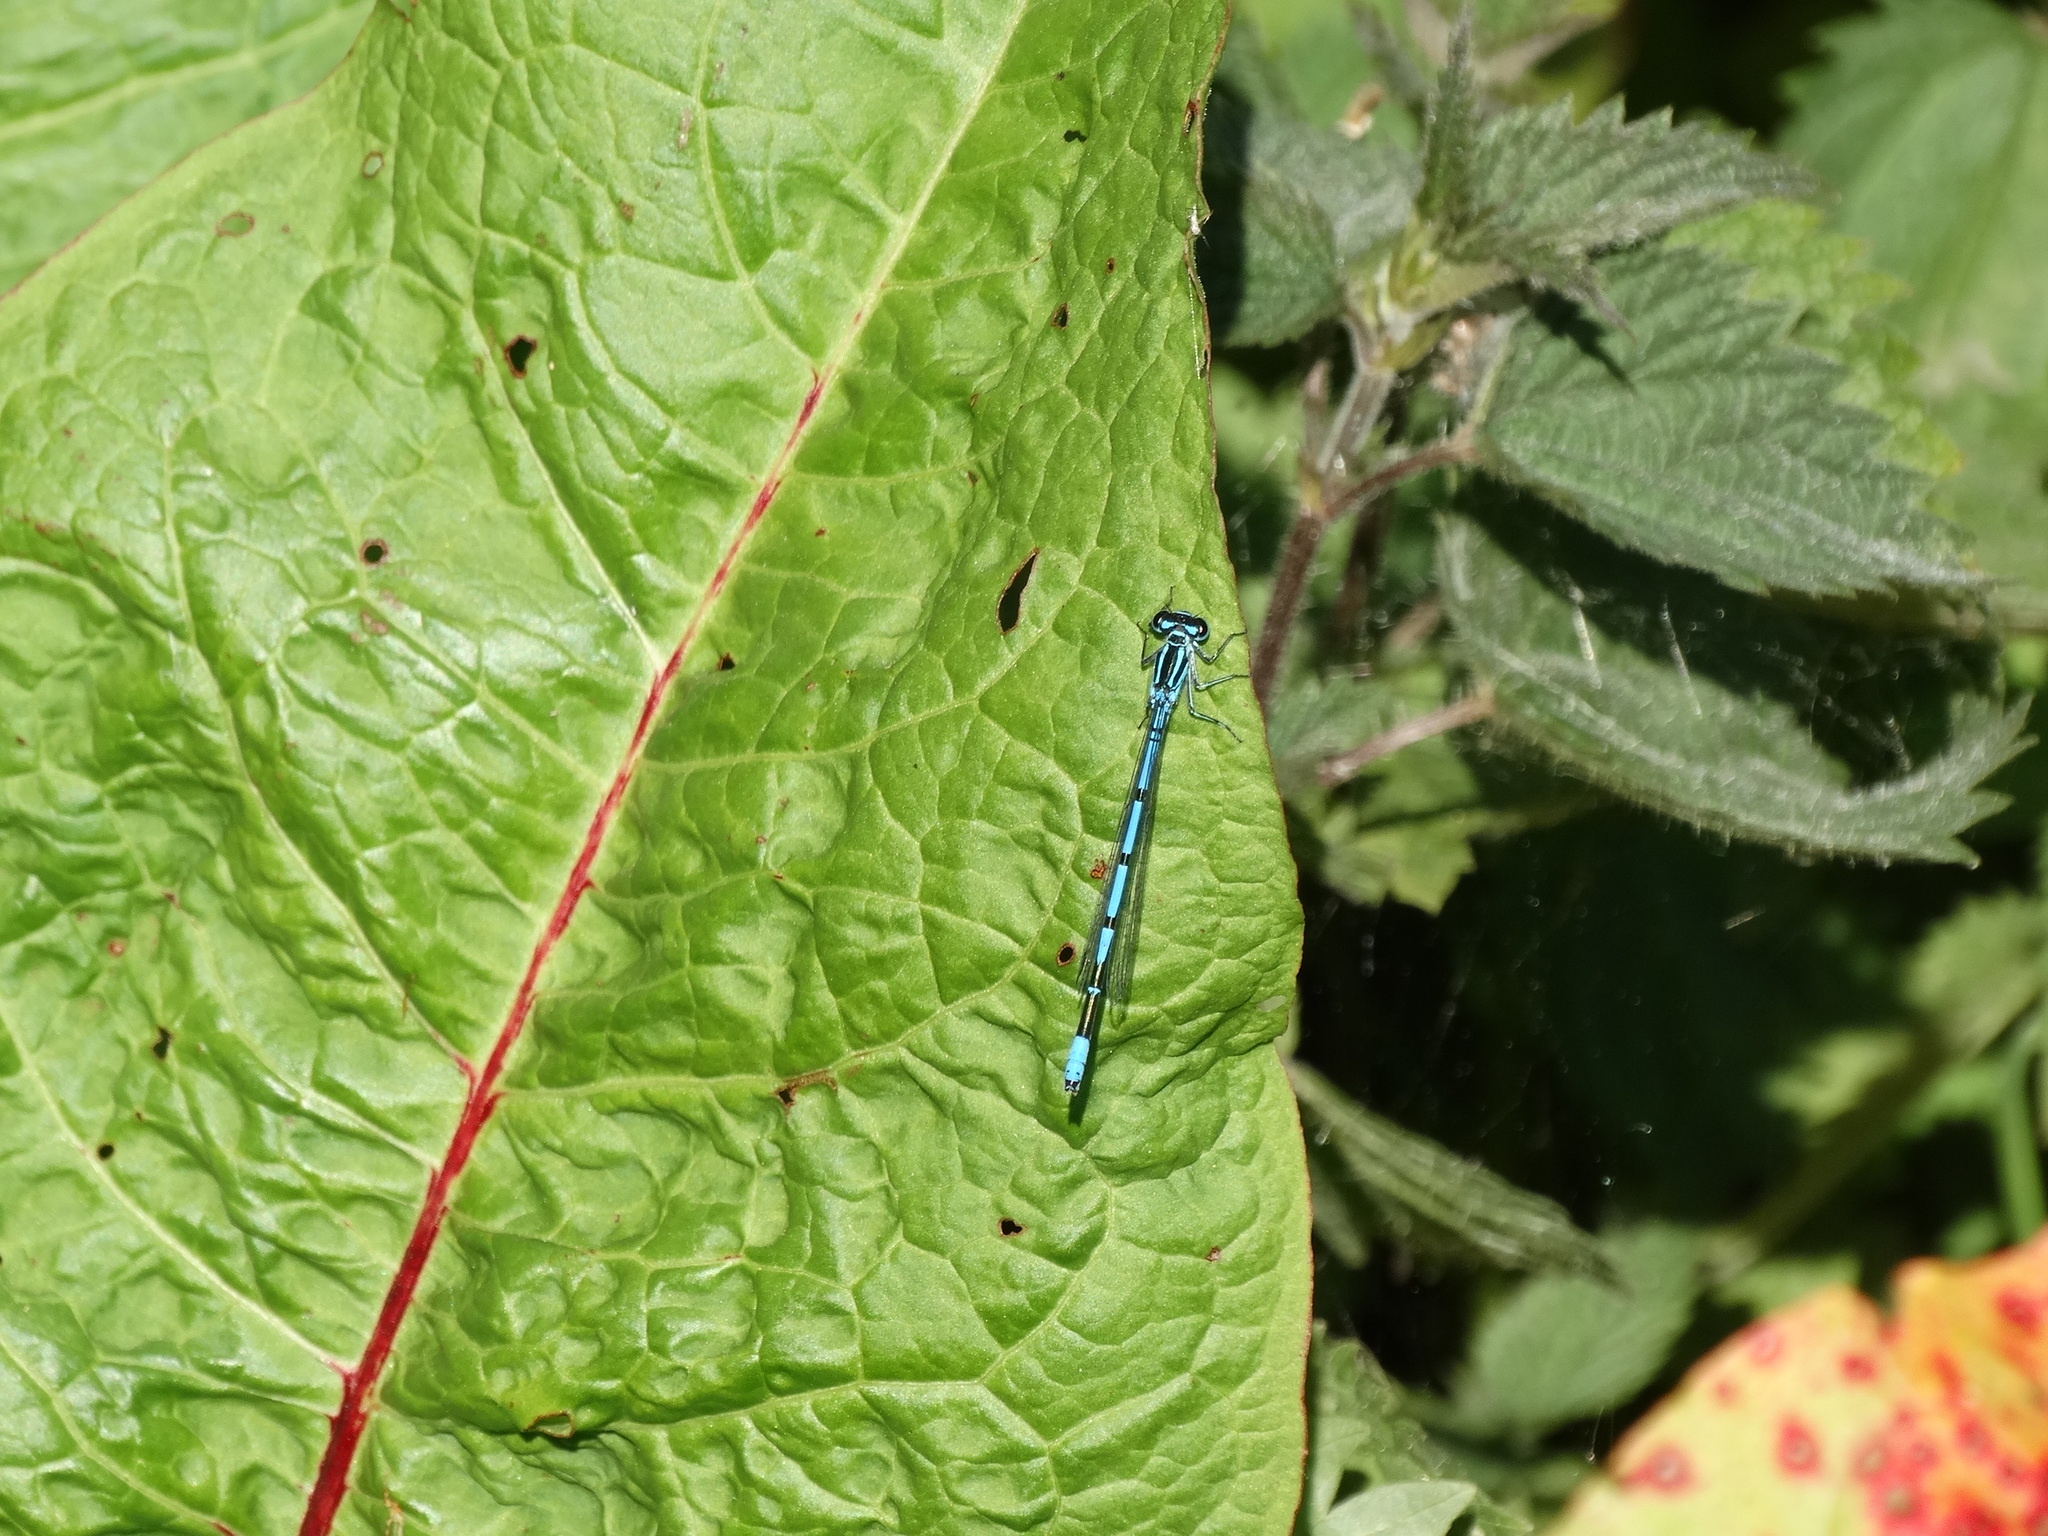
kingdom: Animalia
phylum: Arthropoda
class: Insecta
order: Odonata
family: Coenagrionidae
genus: Coenagrion
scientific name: Coenagrion puella
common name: Azure damselfly
